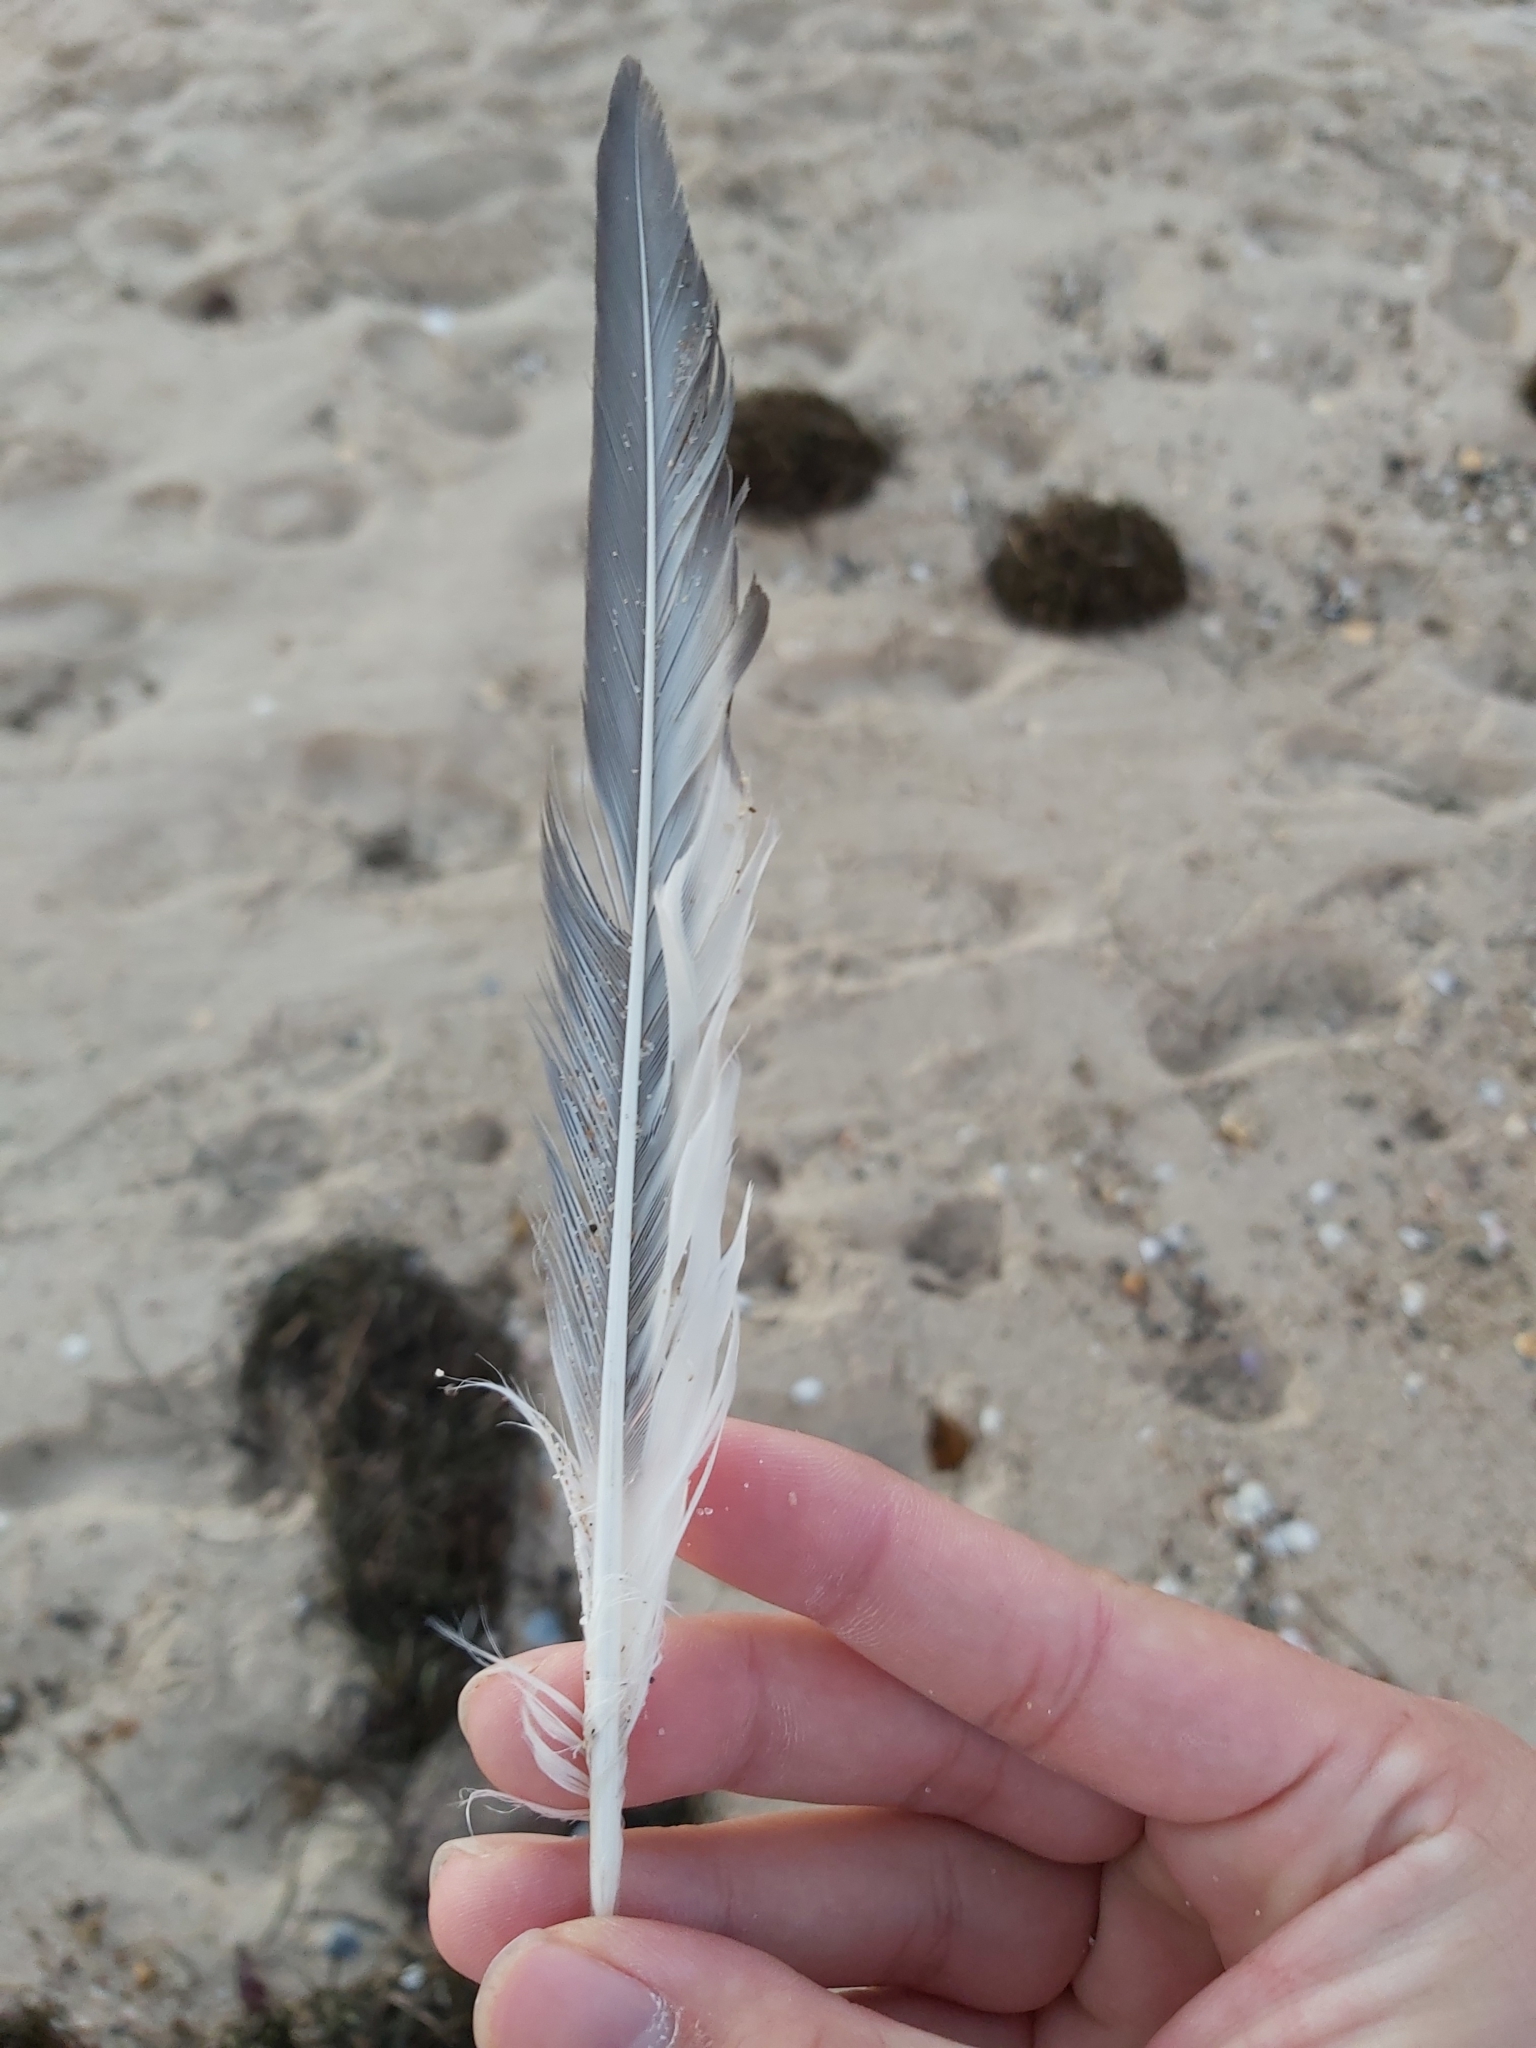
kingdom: Animalia
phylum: Chordata
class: Aves
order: Charadriiformes
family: Laridae
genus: Thalasseus
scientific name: Thalasseus bergii
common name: Greater crested tern
